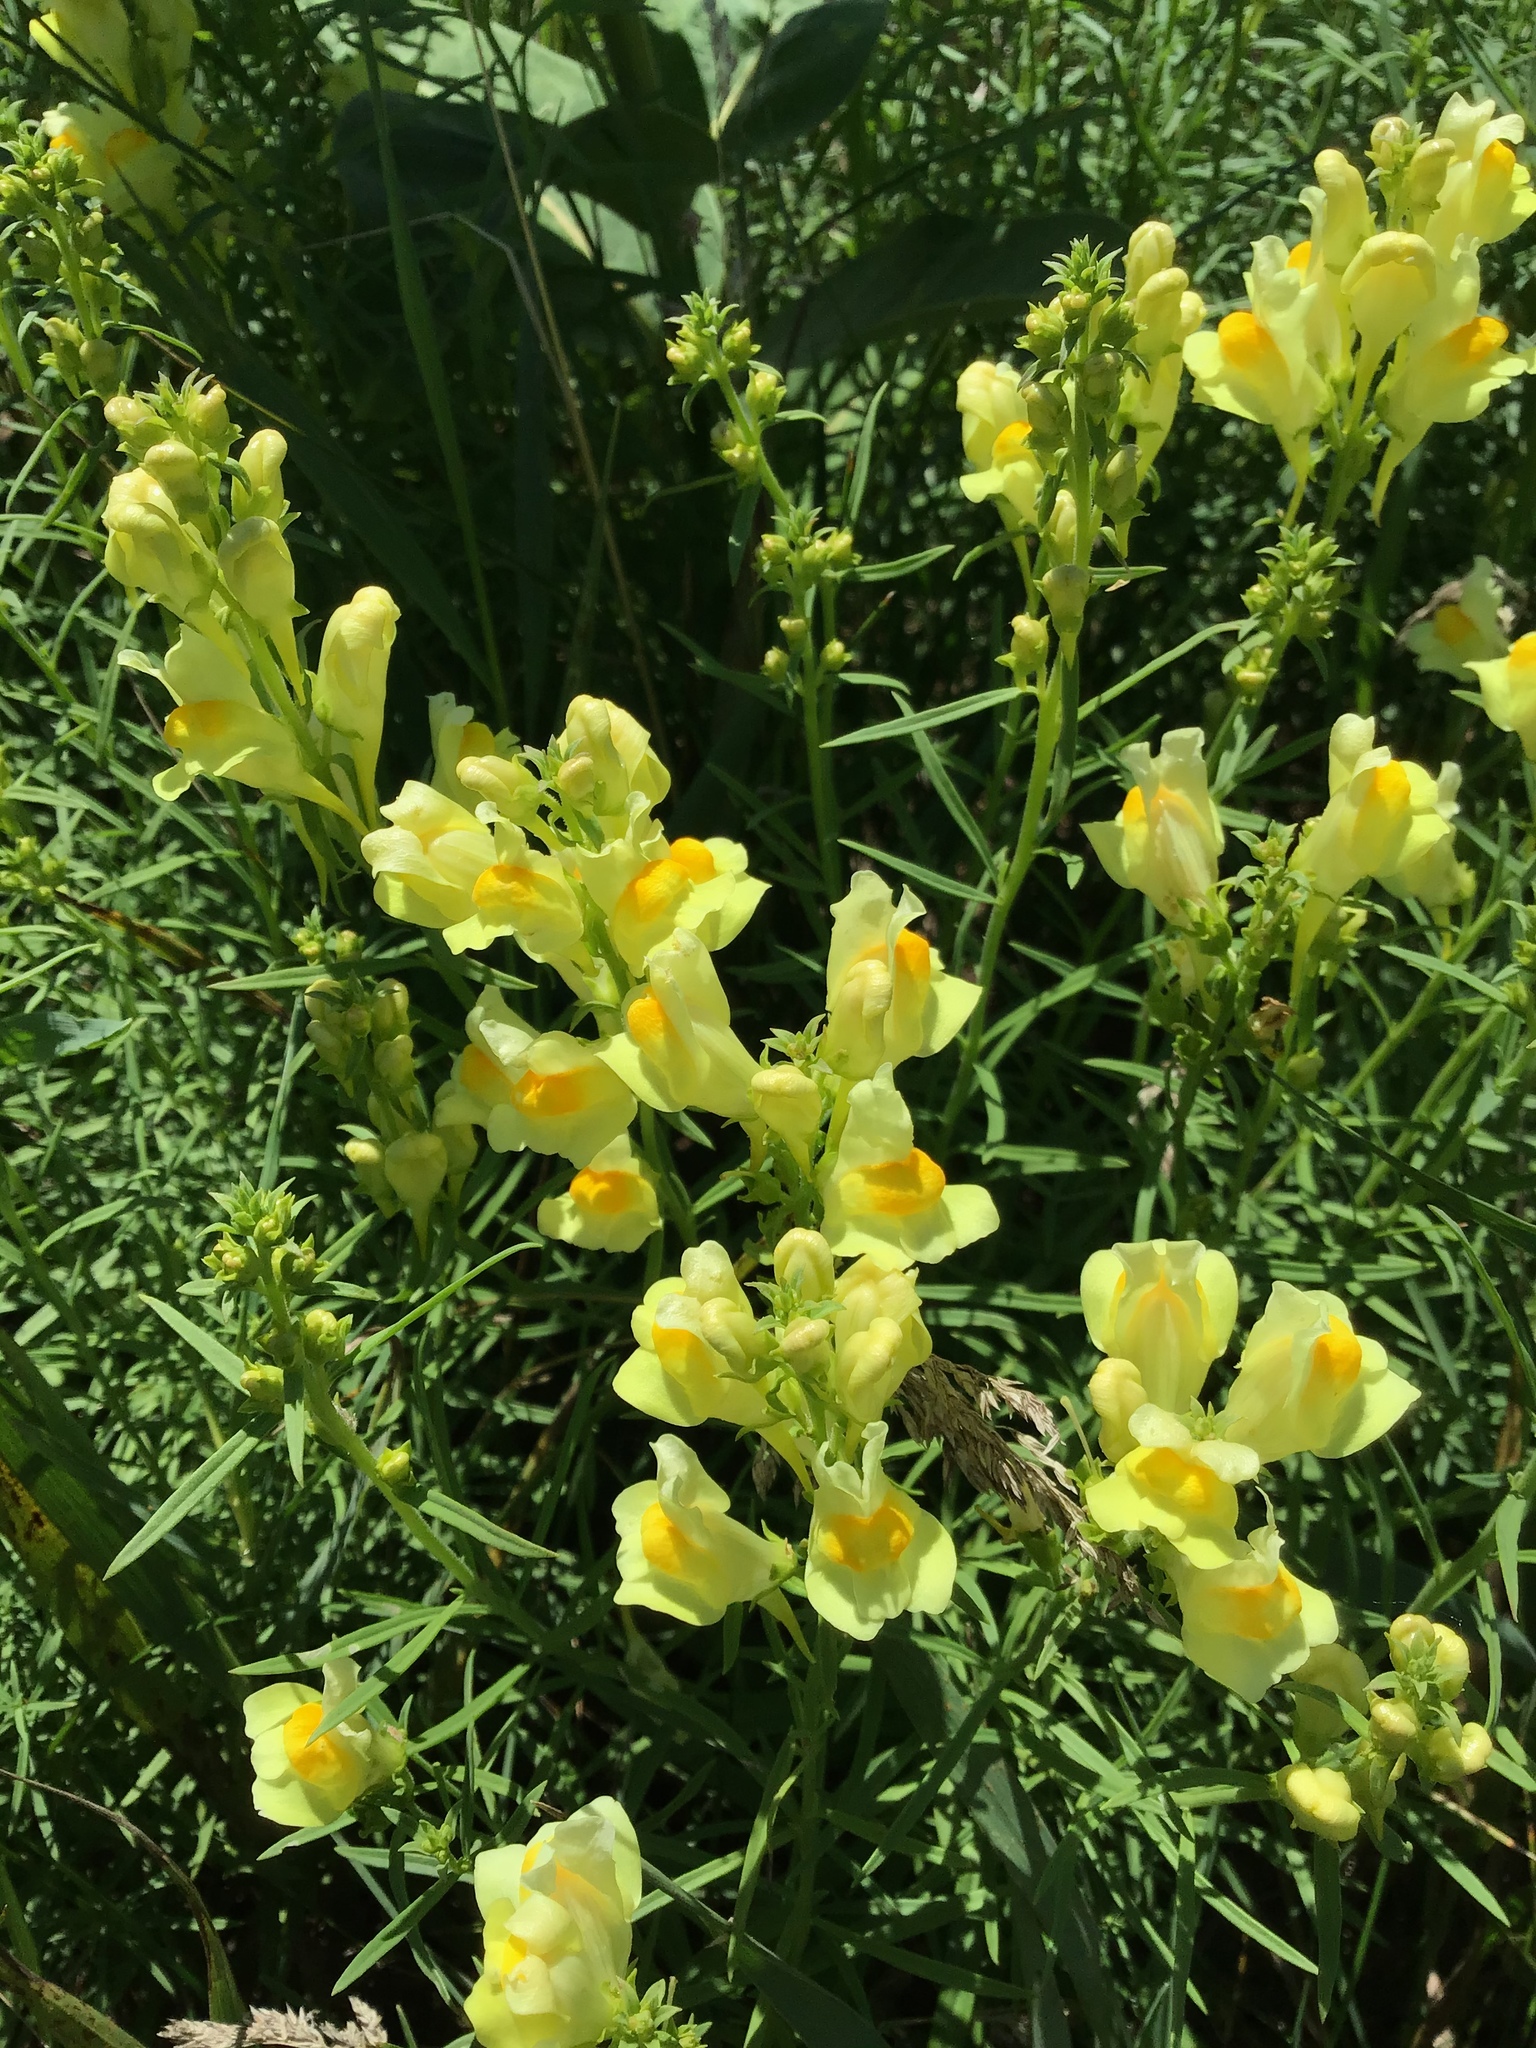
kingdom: Plantae
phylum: Tracheophyta
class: Magnoliopsida
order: Lamiales
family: Plantaginaceae
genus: Linaria
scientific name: Linaria vulgaris
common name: Butter and eggs
